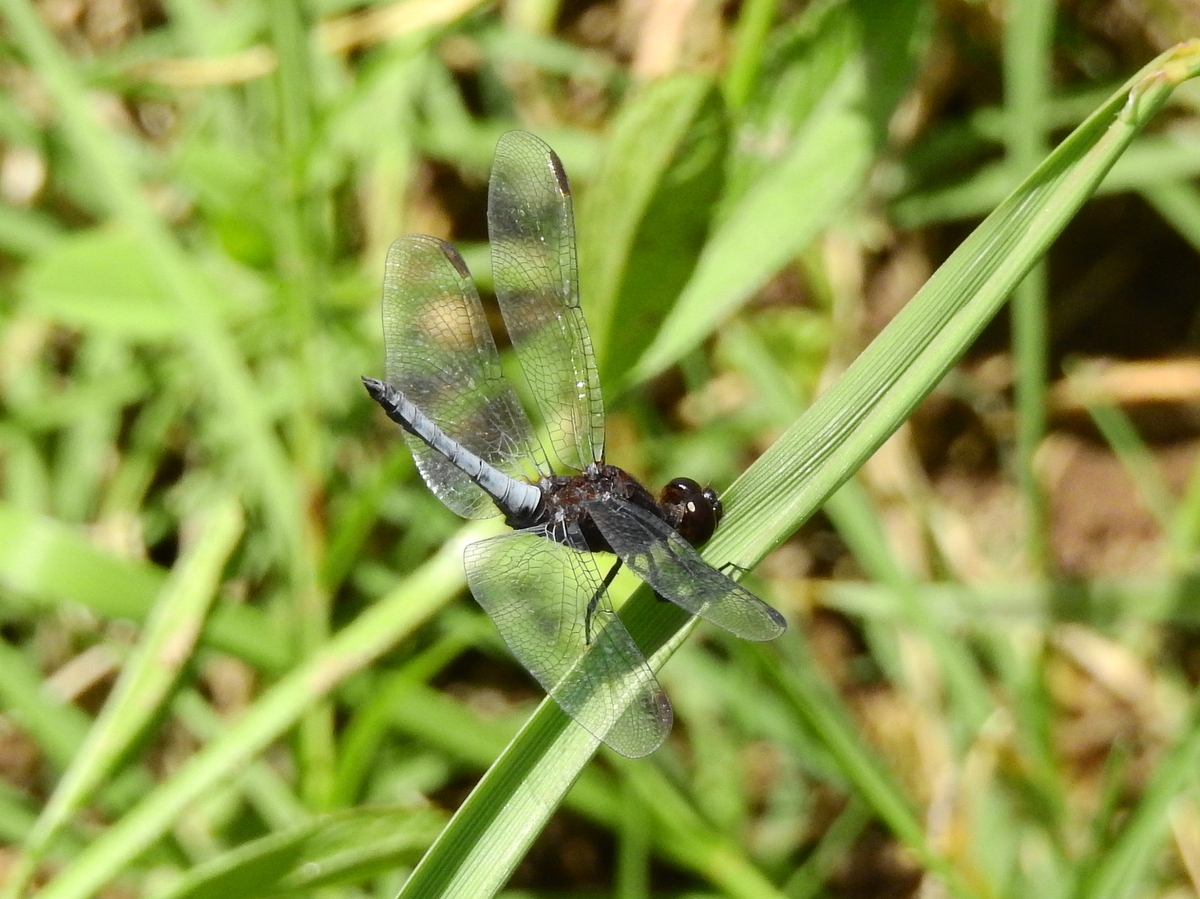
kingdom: Animalia
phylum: Arthropoda
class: Insecta
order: Odonata
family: Libellulidae
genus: Erythrodiplax
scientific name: Erythrodiplax connata
